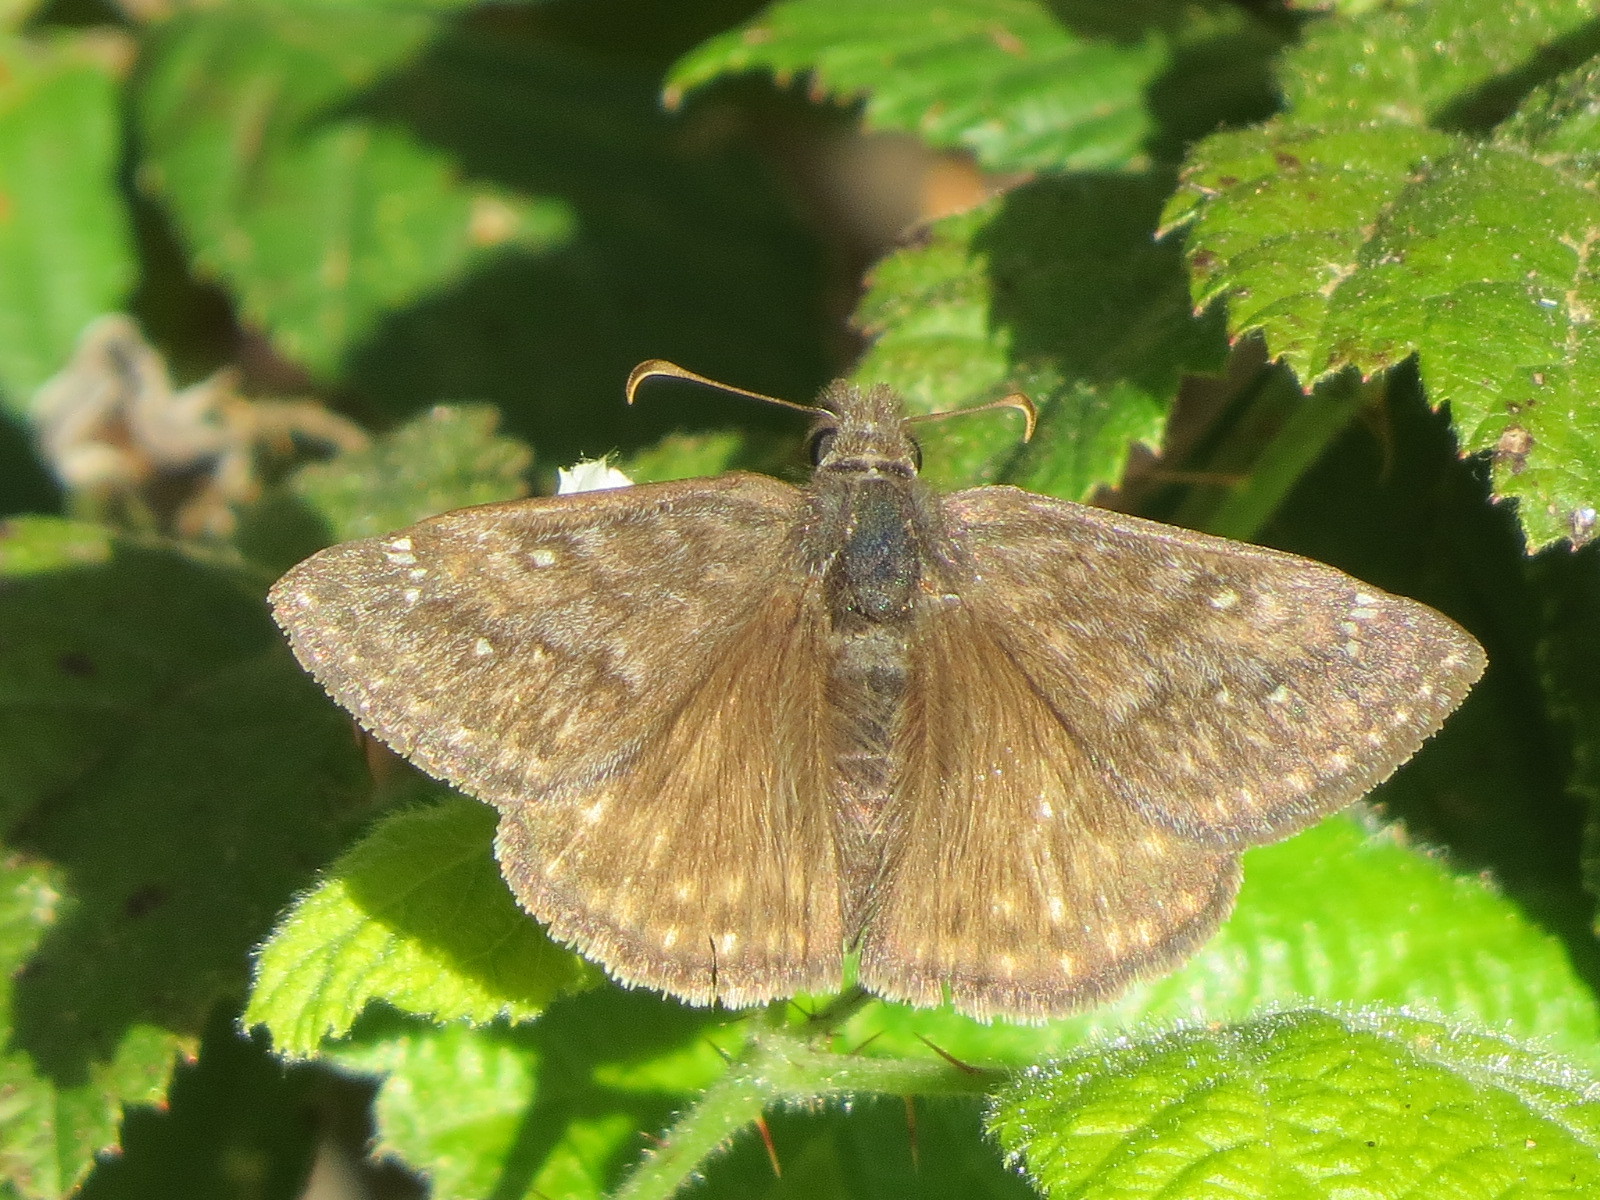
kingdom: Animalia
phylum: Arthropoda
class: Insecta
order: Lepidoptera
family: Hesperiidae
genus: Erynnis
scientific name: Erynnis propertius
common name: Propertius duskywing
